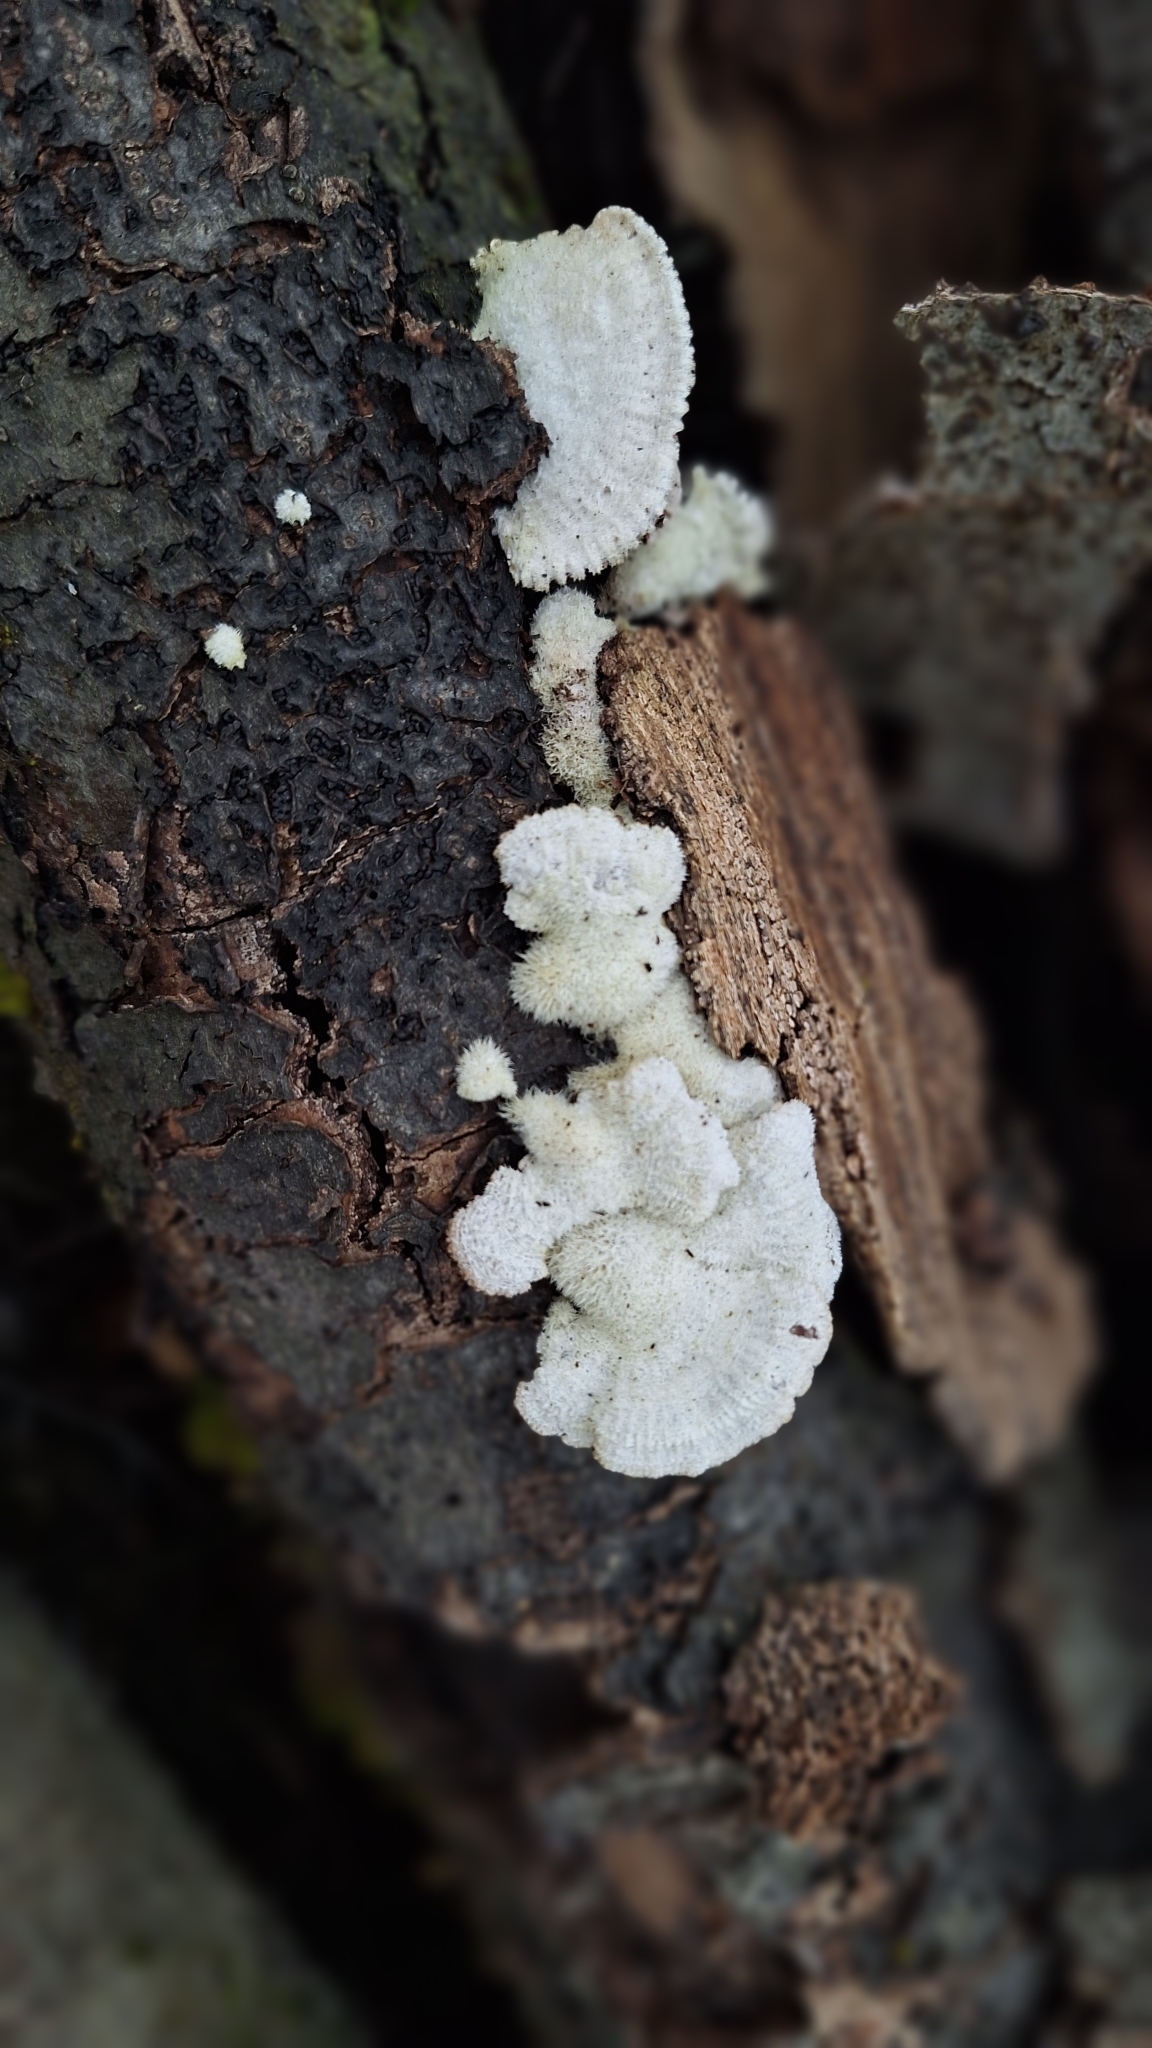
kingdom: Fungi
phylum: Basidiomycota
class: Agaricomycetes
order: Agaricales
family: Schizophyllaceae
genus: Schizophyllum
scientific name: Schizophyllum commune
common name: Common porecrust
